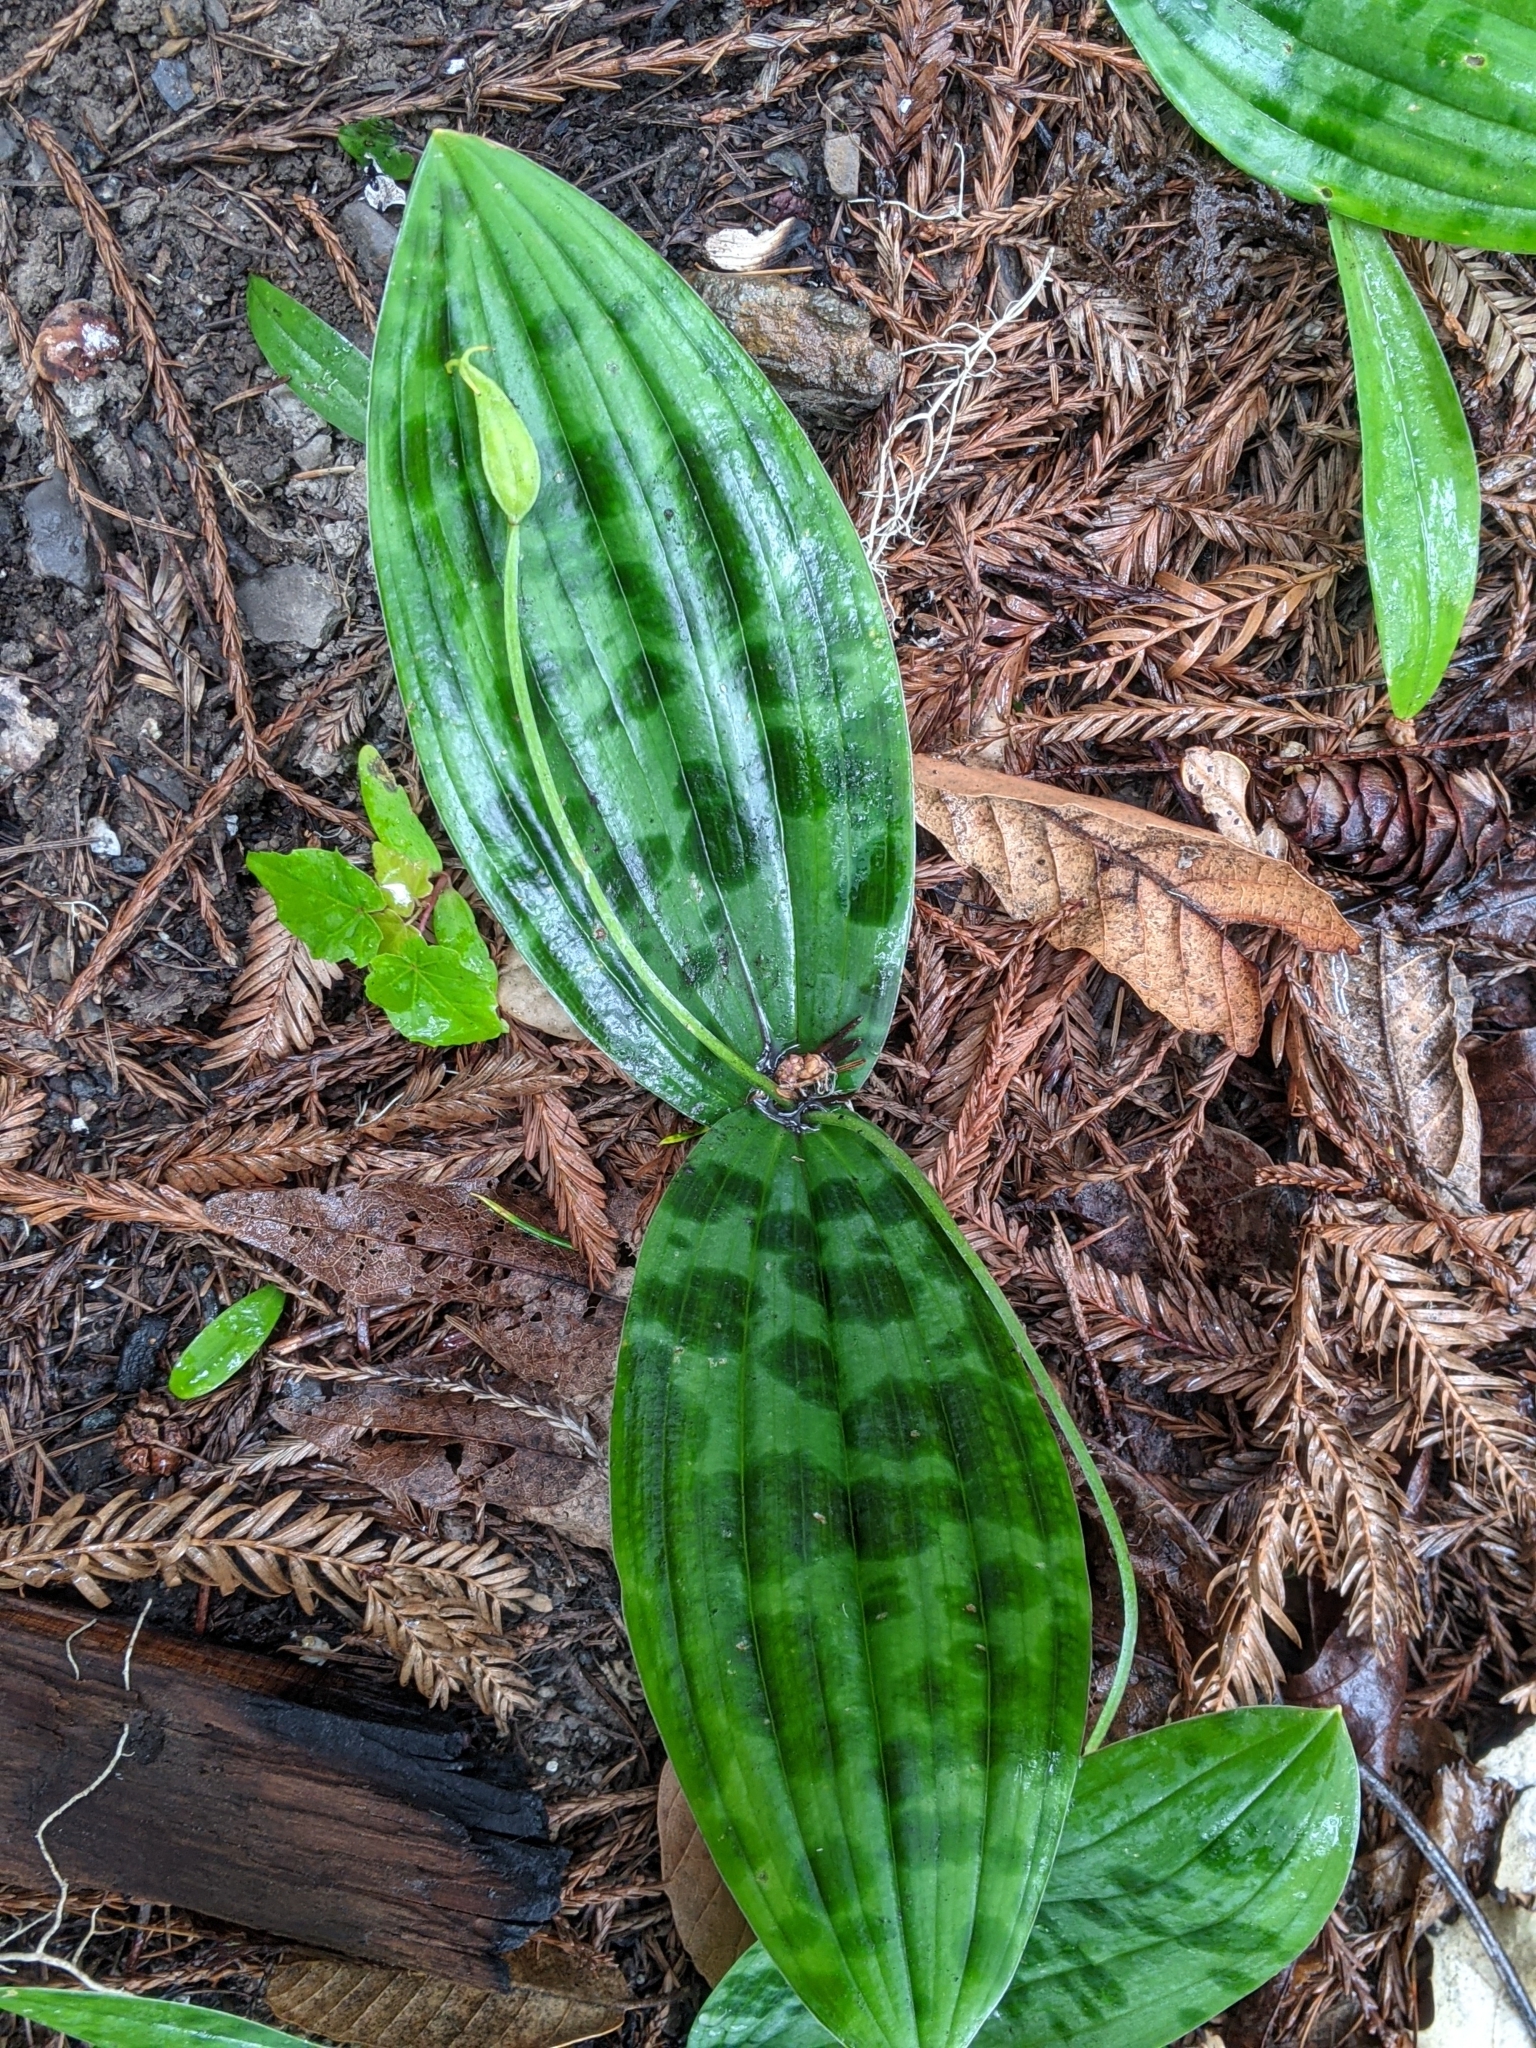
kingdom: Plantae
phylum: Tracheophyta
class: Liliopsida
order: Liliales
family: Liliaceae
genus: Scoliopus
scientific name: Scoliopus bigelovii
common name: Foetid adder's-tongue
